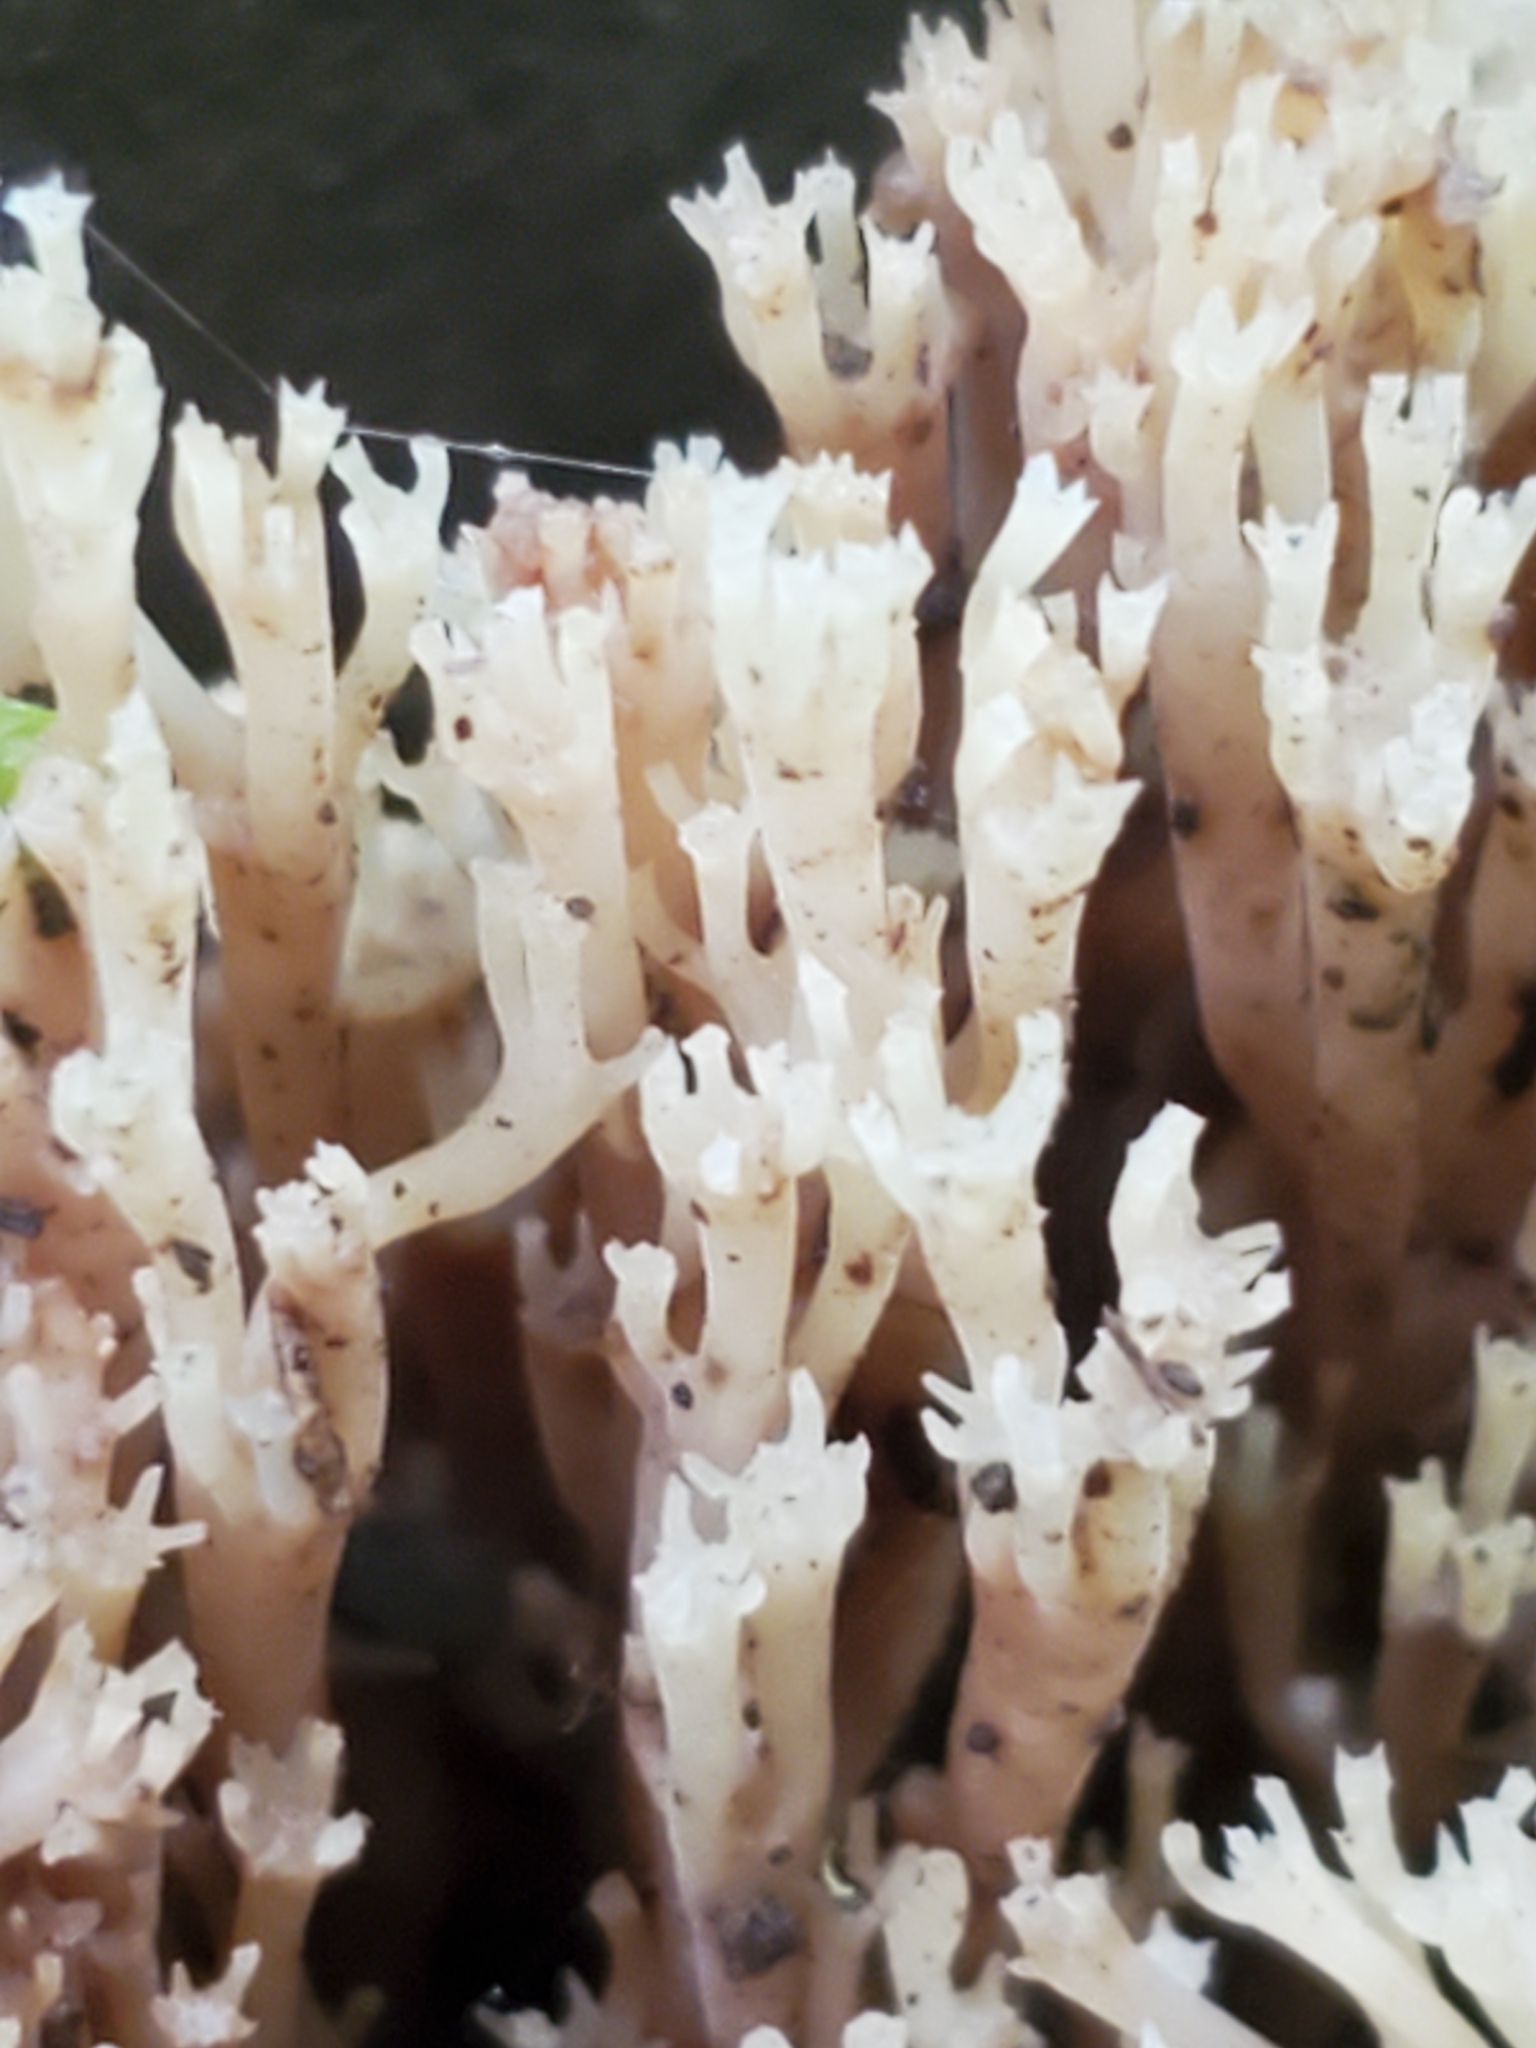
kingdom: Fungi
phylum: Basidiomycota
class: Agaricomycetes
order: Russulales
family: Auriscalpiaceae
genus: Artomyces
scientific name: Artomyces pyxidatus
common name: Crown-tipped coral fungus
